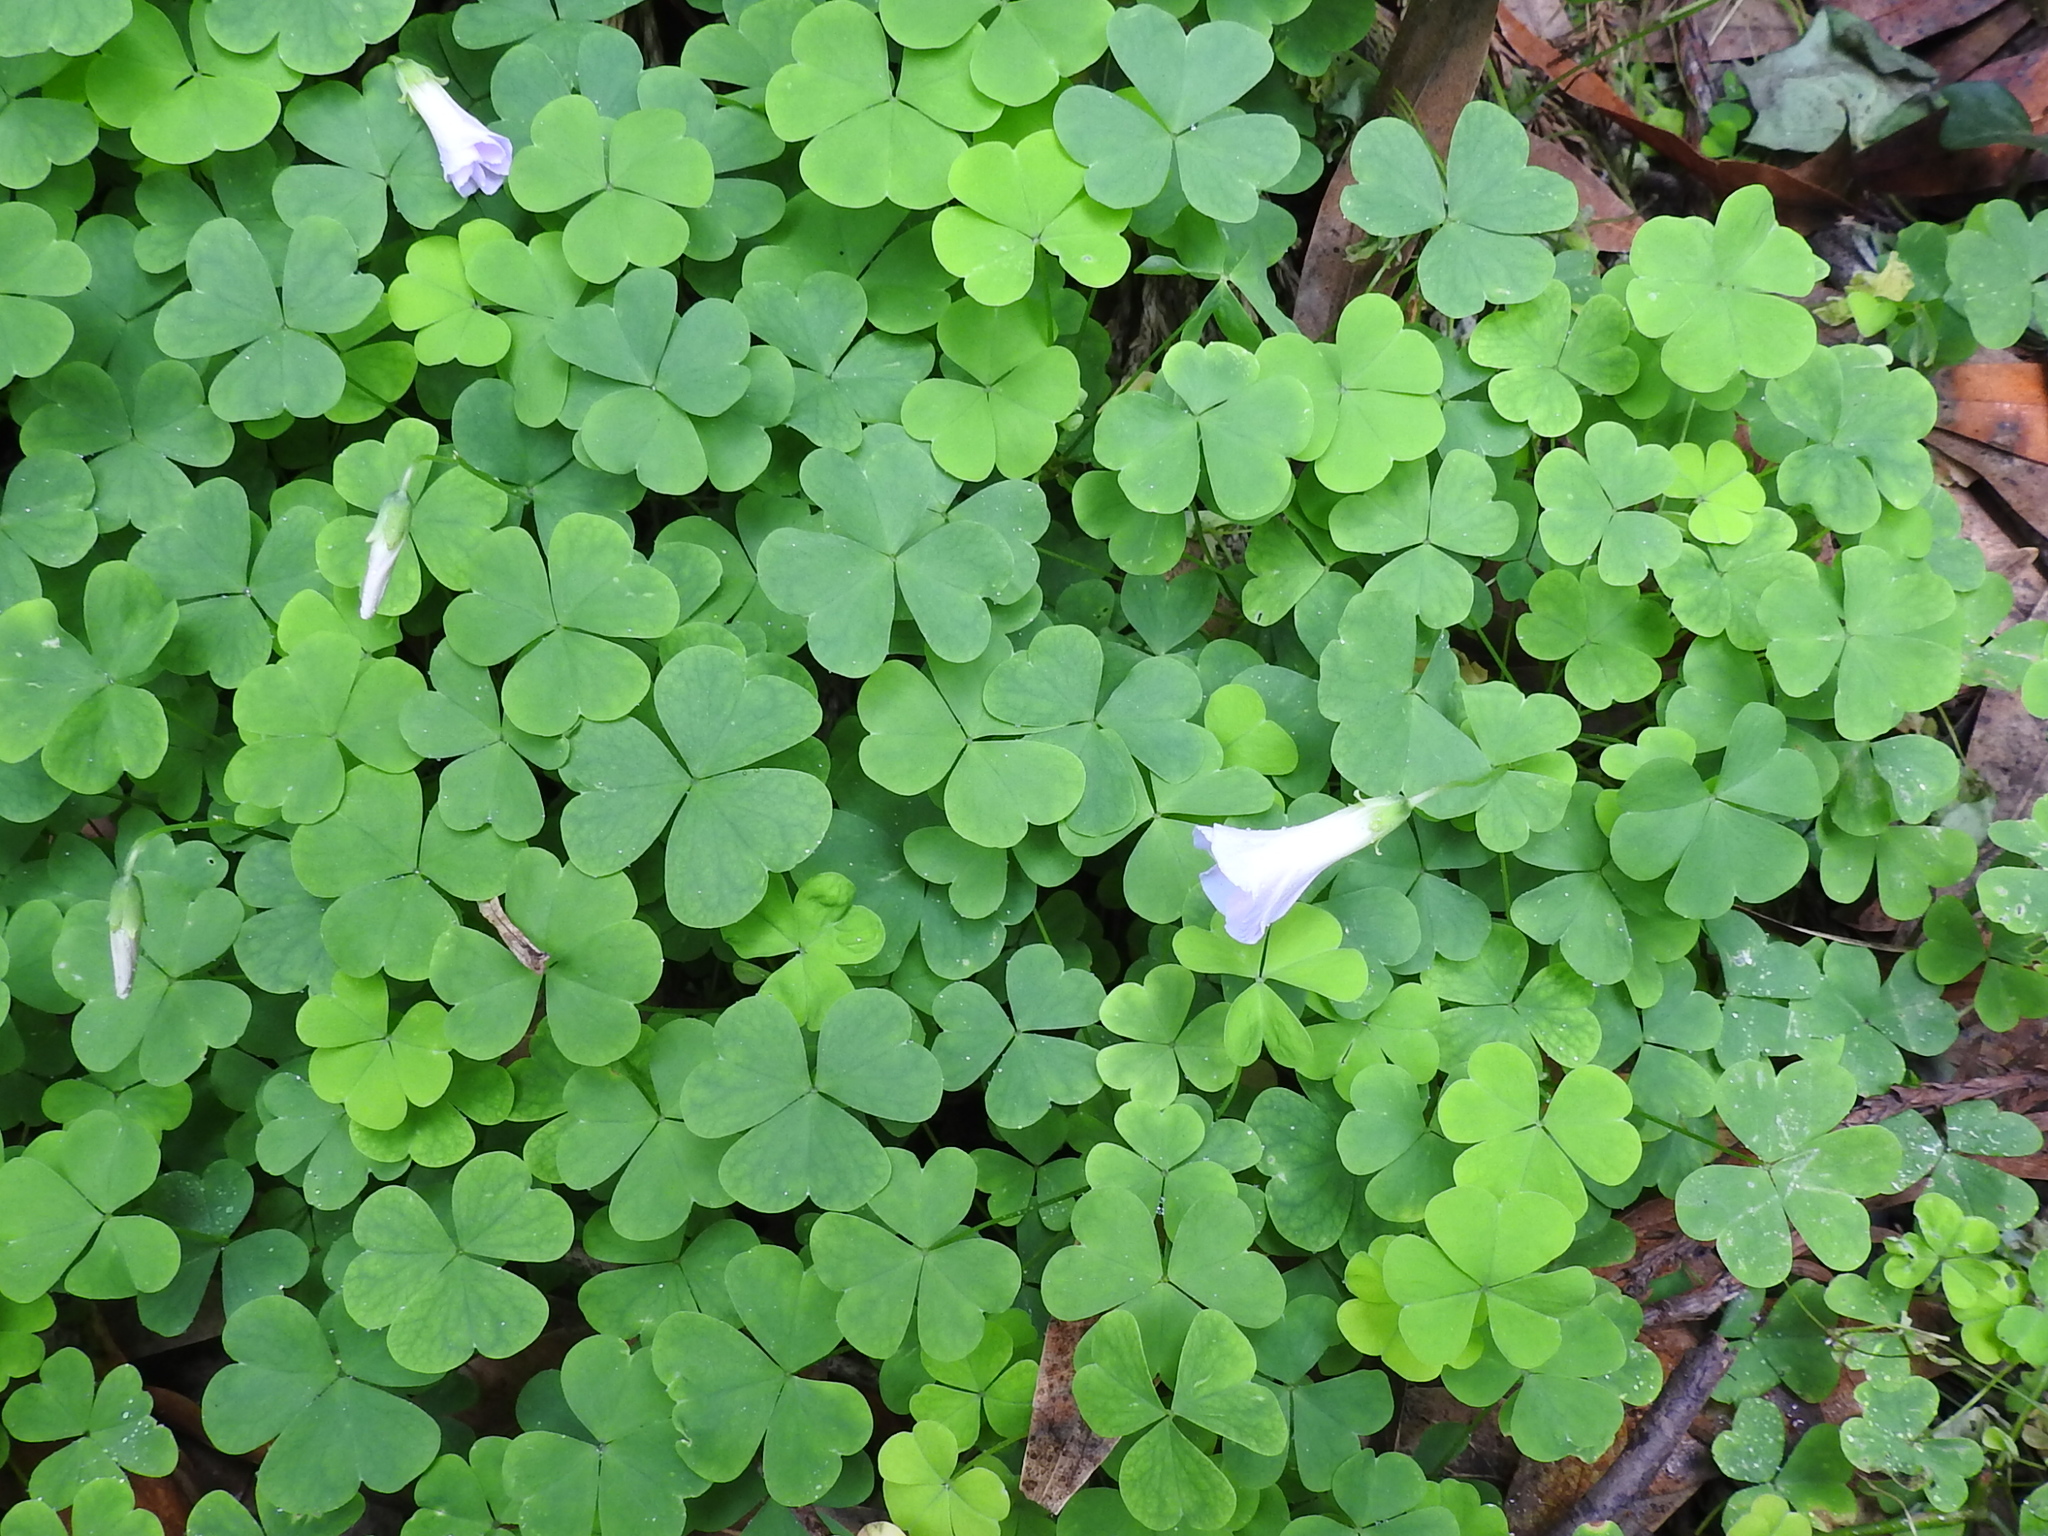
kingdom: Plantae
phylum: Tracheophyta
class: Magnoliopsida
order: Oxalidales
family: Oxalidaceae
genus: Oxalis
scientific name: Oxalis incarnata
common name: Pale pink-sorrel
